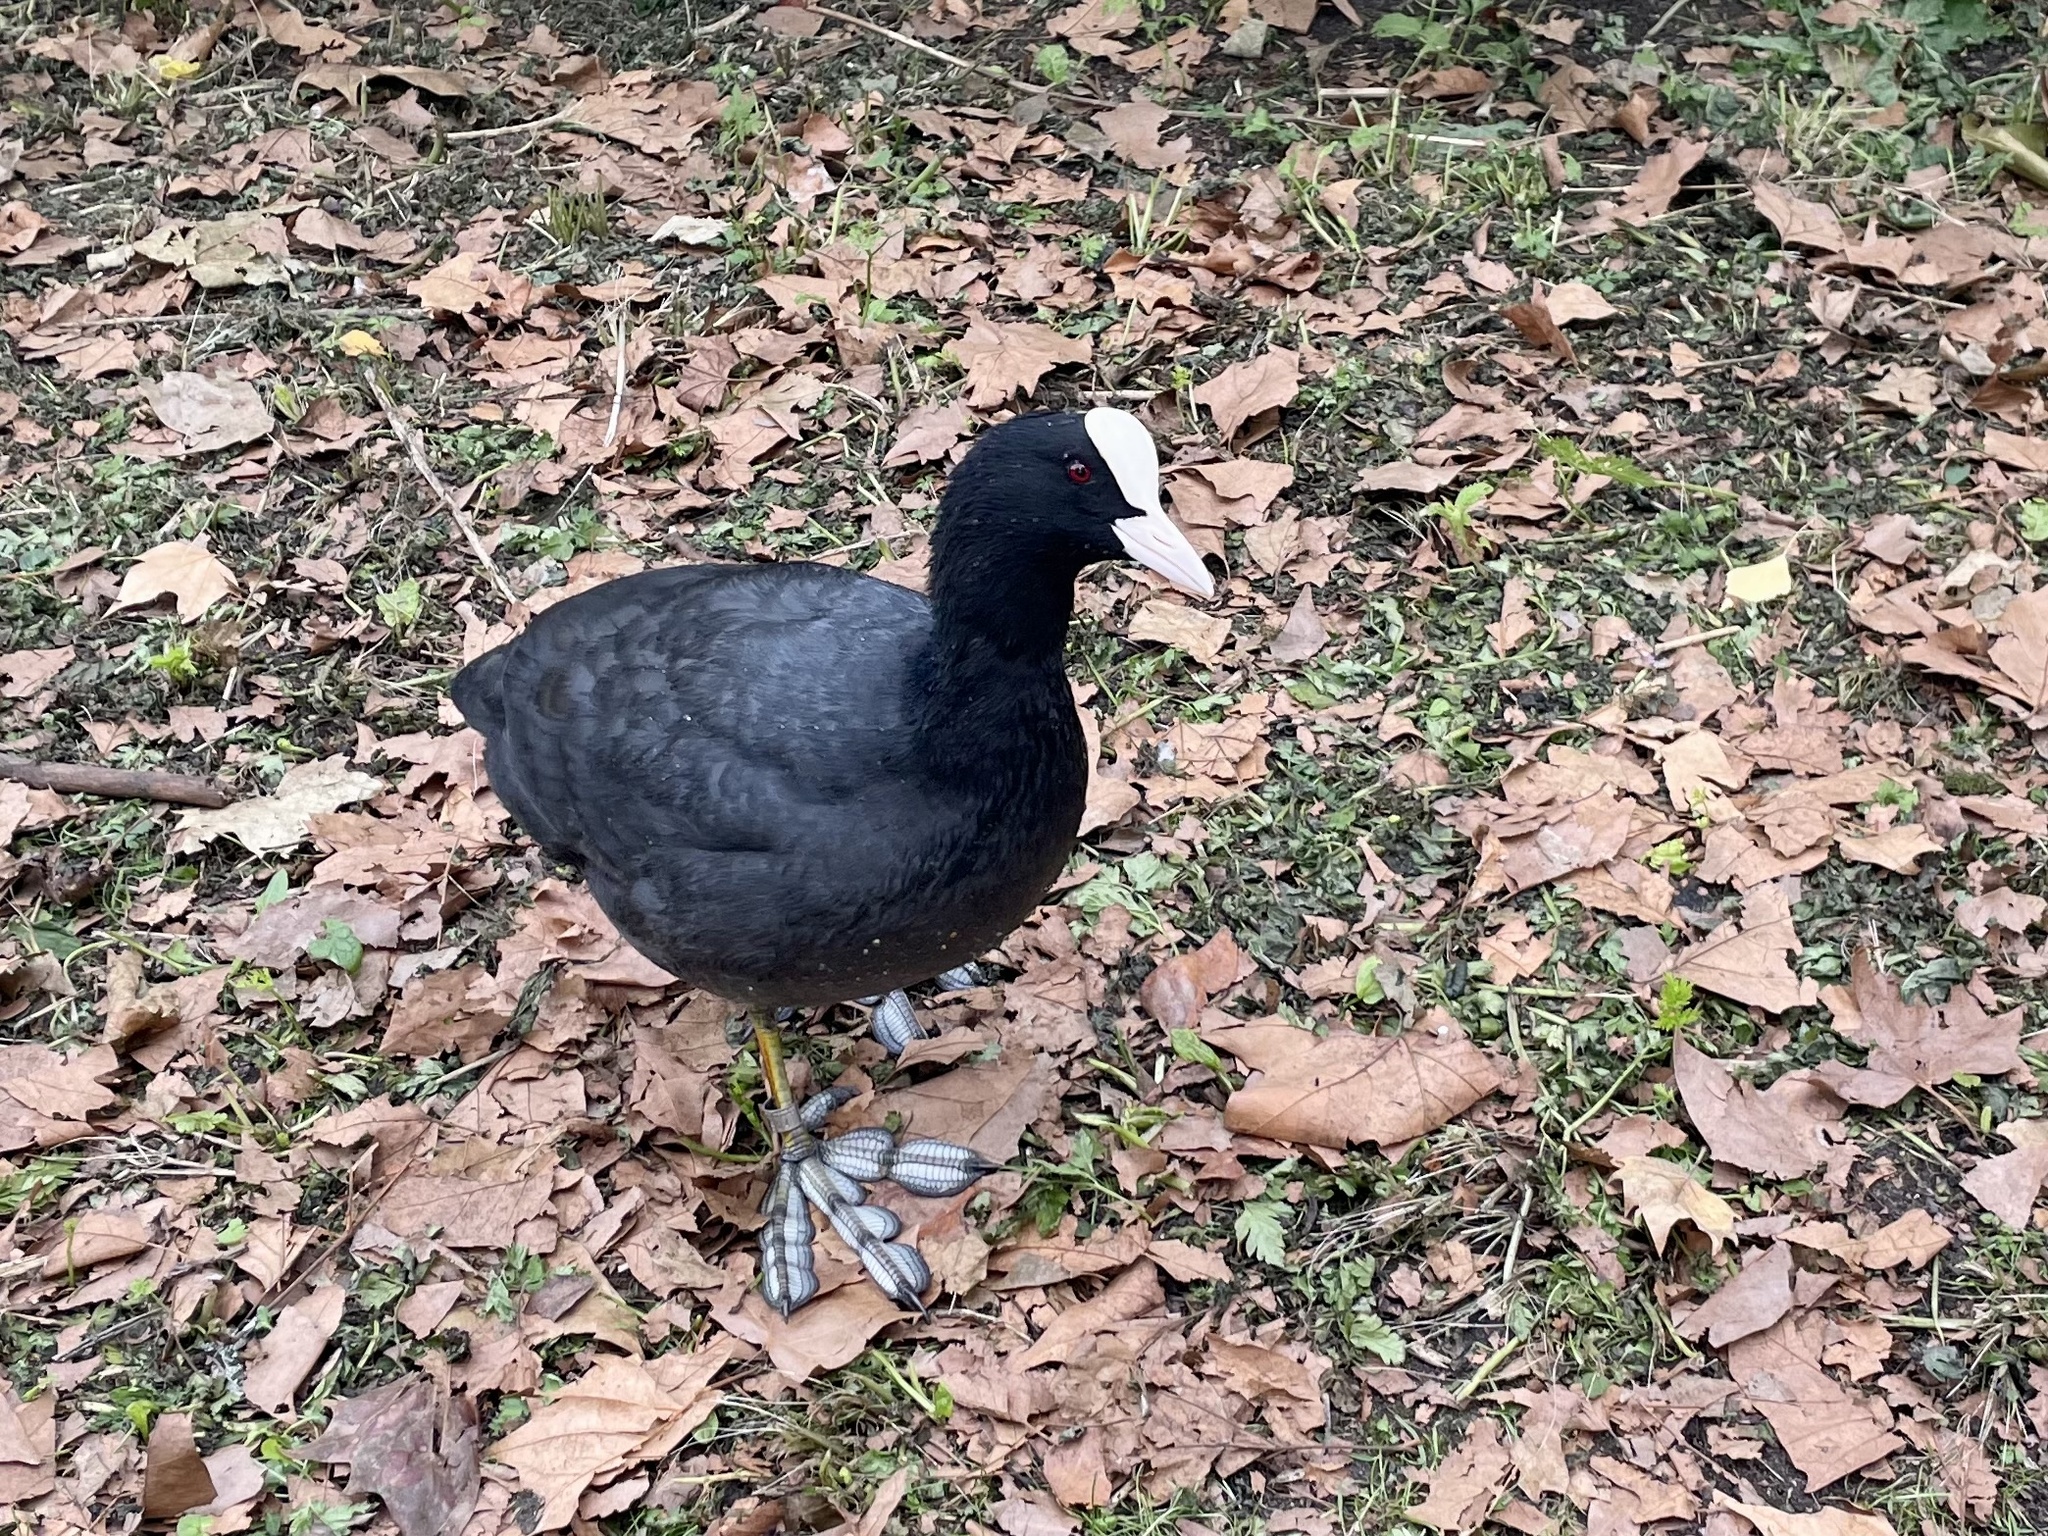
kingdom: Animalia
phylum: Chordata
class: Aves
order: Gruiformes
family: Rallidae
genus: Fulica
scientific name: Fulica atra
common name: Eurasian coot
